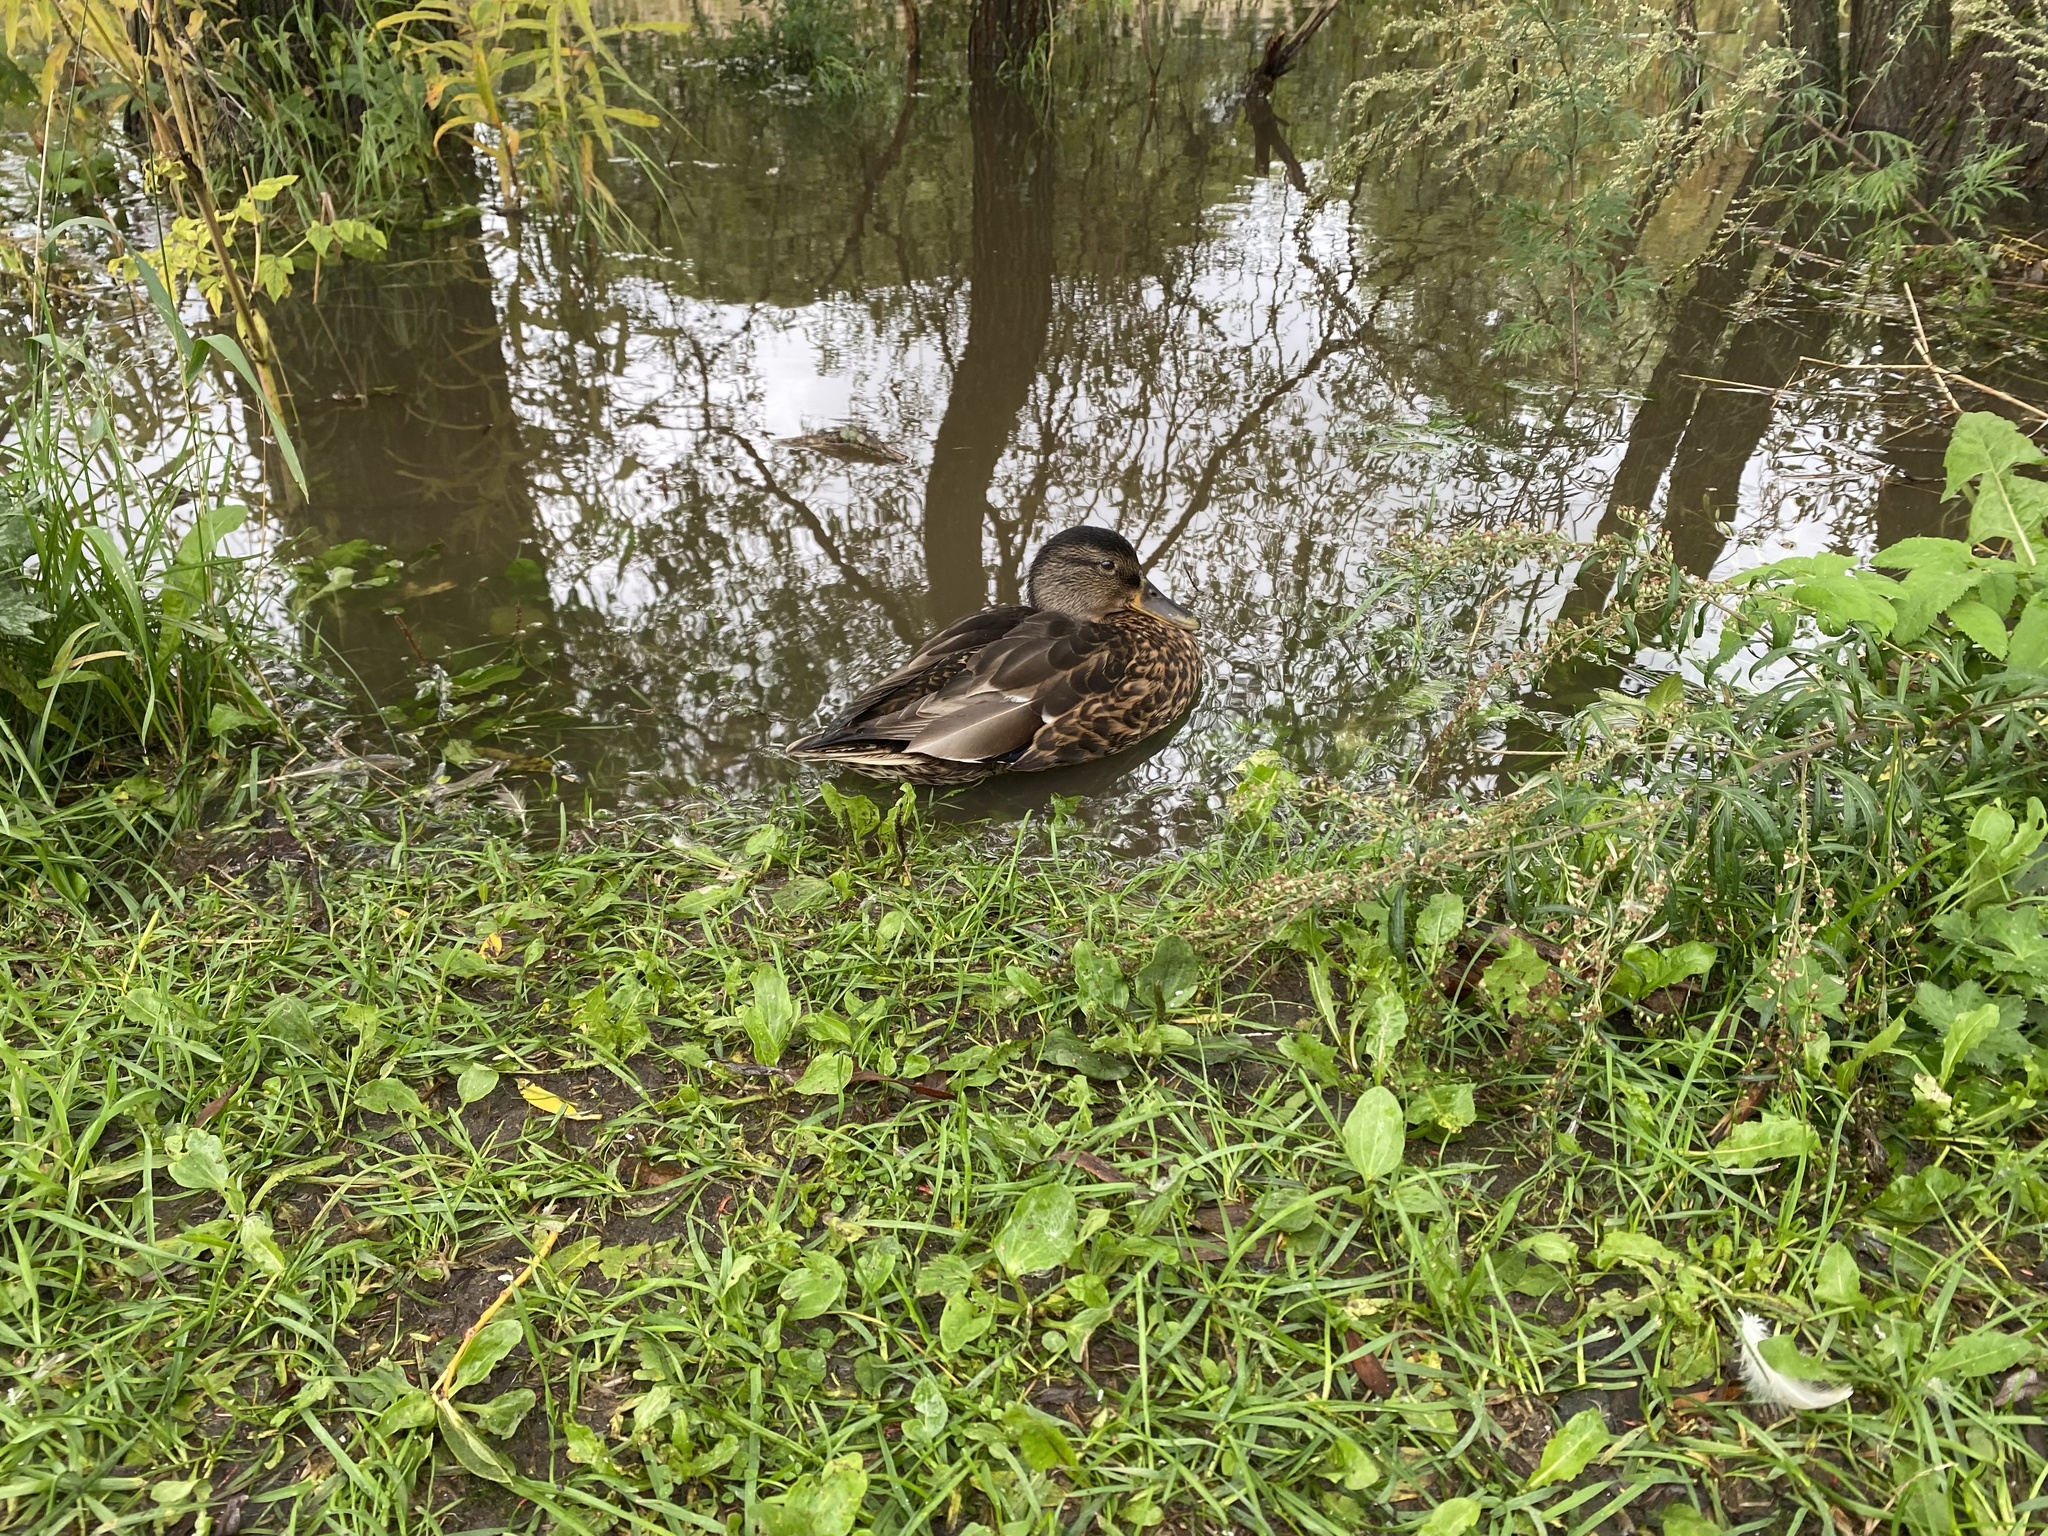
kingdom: Animalia
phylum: Chordata
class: Aves
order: Anseriformes
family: Anatidae
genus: Anas
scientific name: Anas platyrhynchos
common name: Mallard
